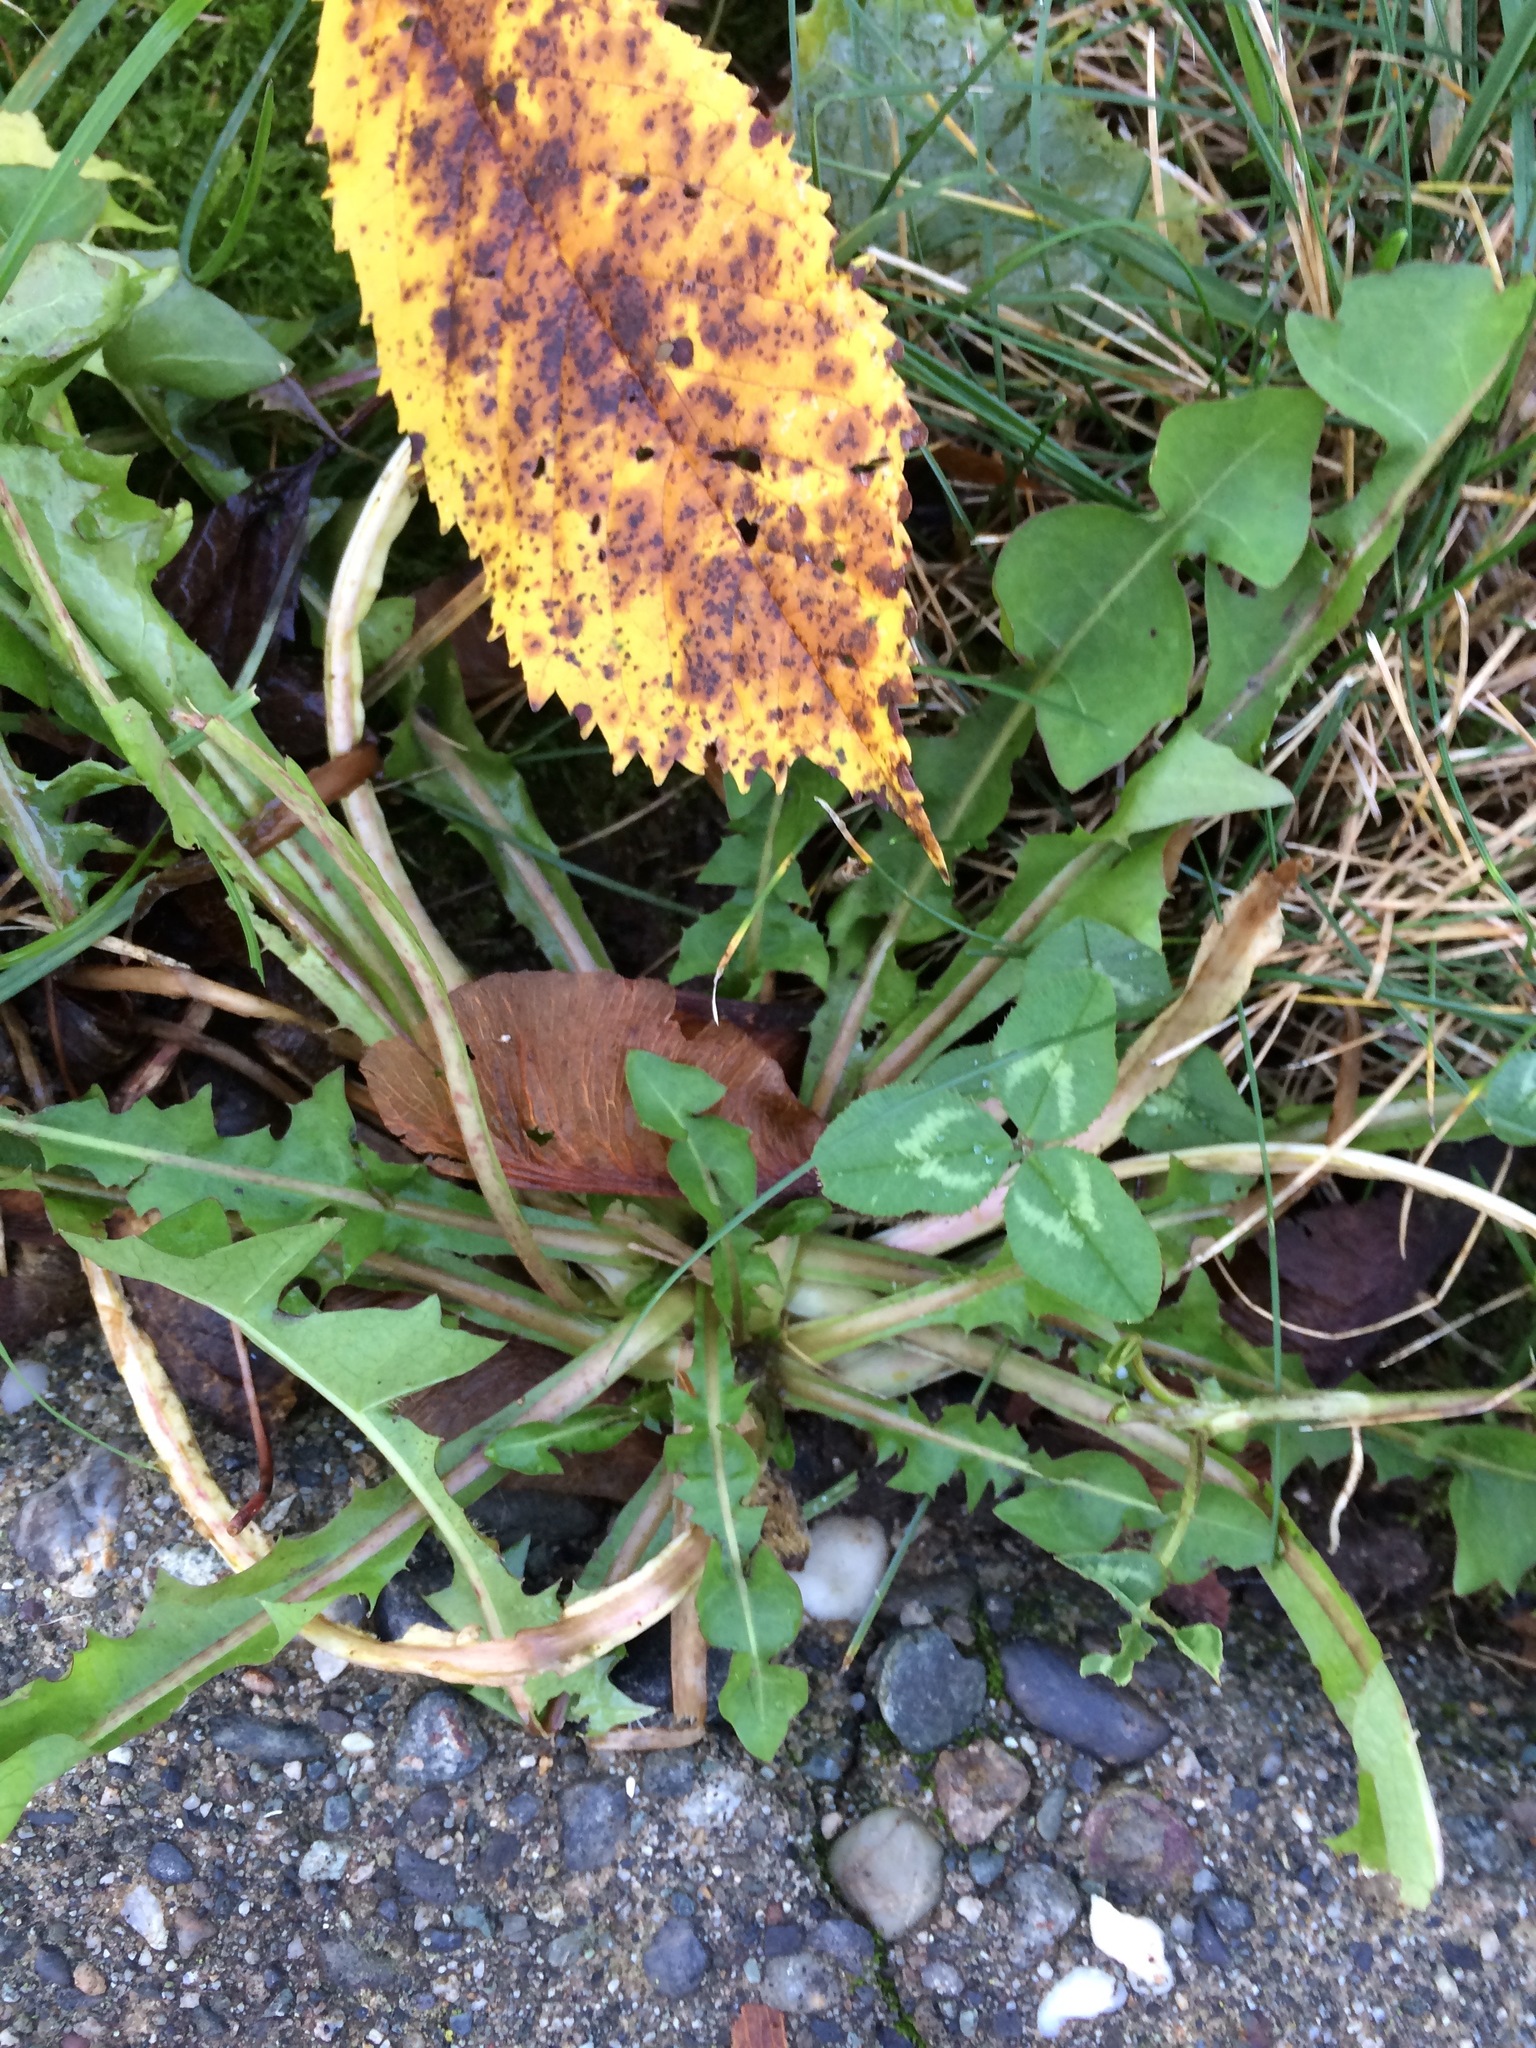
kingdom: Plantae
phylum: Tracheophyta
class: Magnoliopsida
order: Asterales
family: Asteraceae
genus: Taraxacum
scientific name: Taraxacum officinale
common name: Common dandelion
